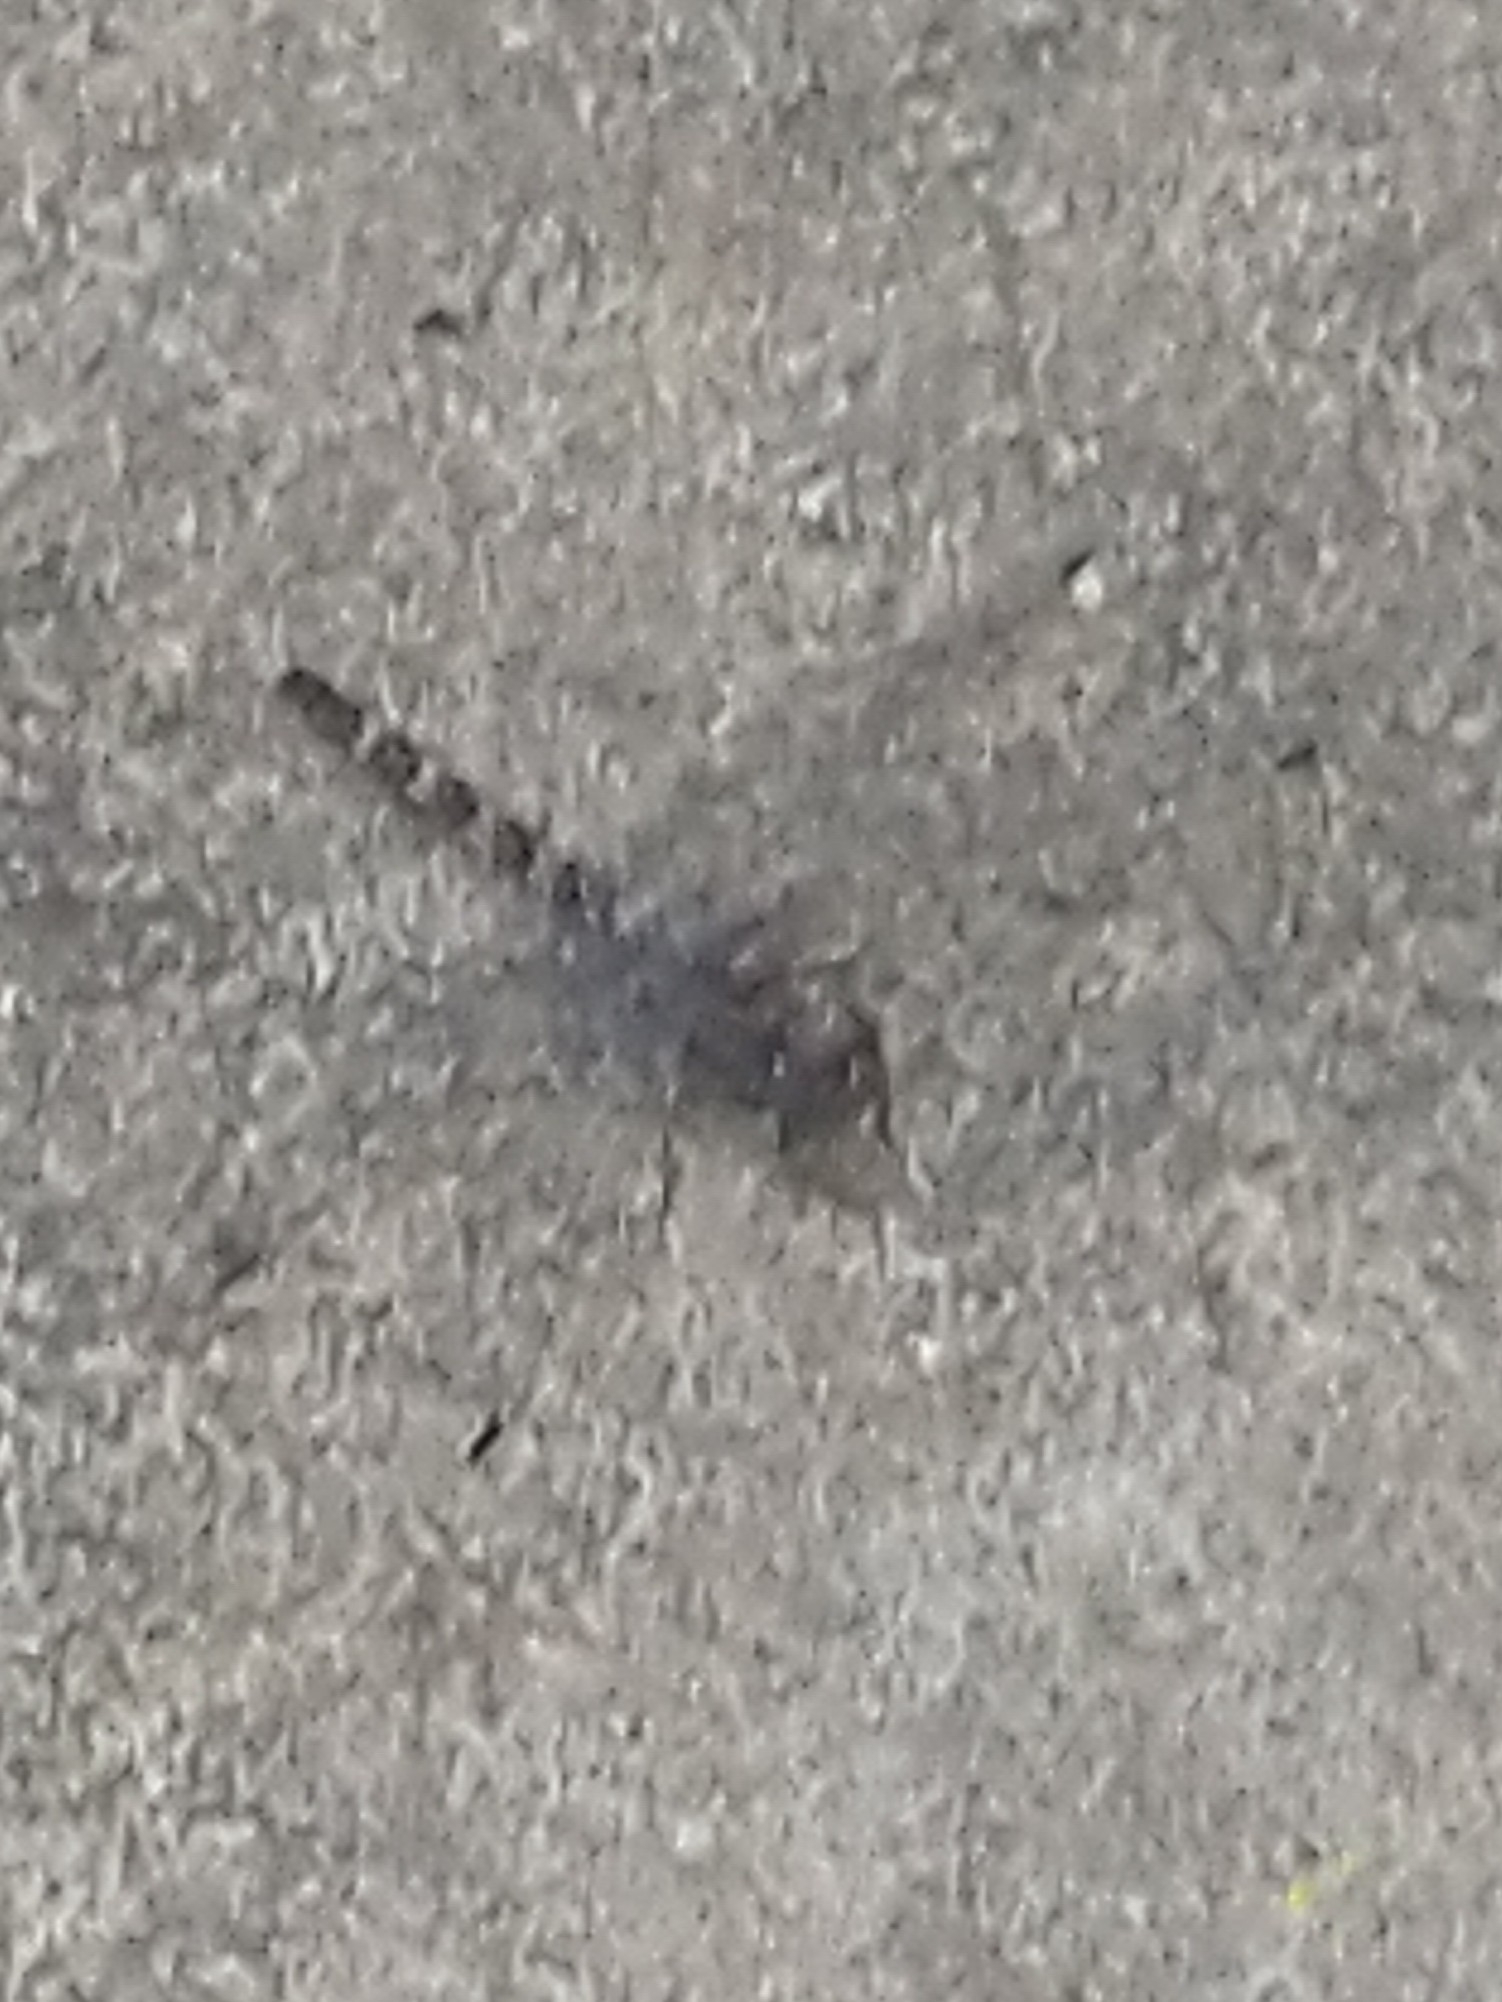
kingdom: Animalia
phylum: Arthropoda
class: Insecta
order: Odonata
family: Libellulidae
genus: Bradinopyga
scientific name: Bradinopyga geminata
